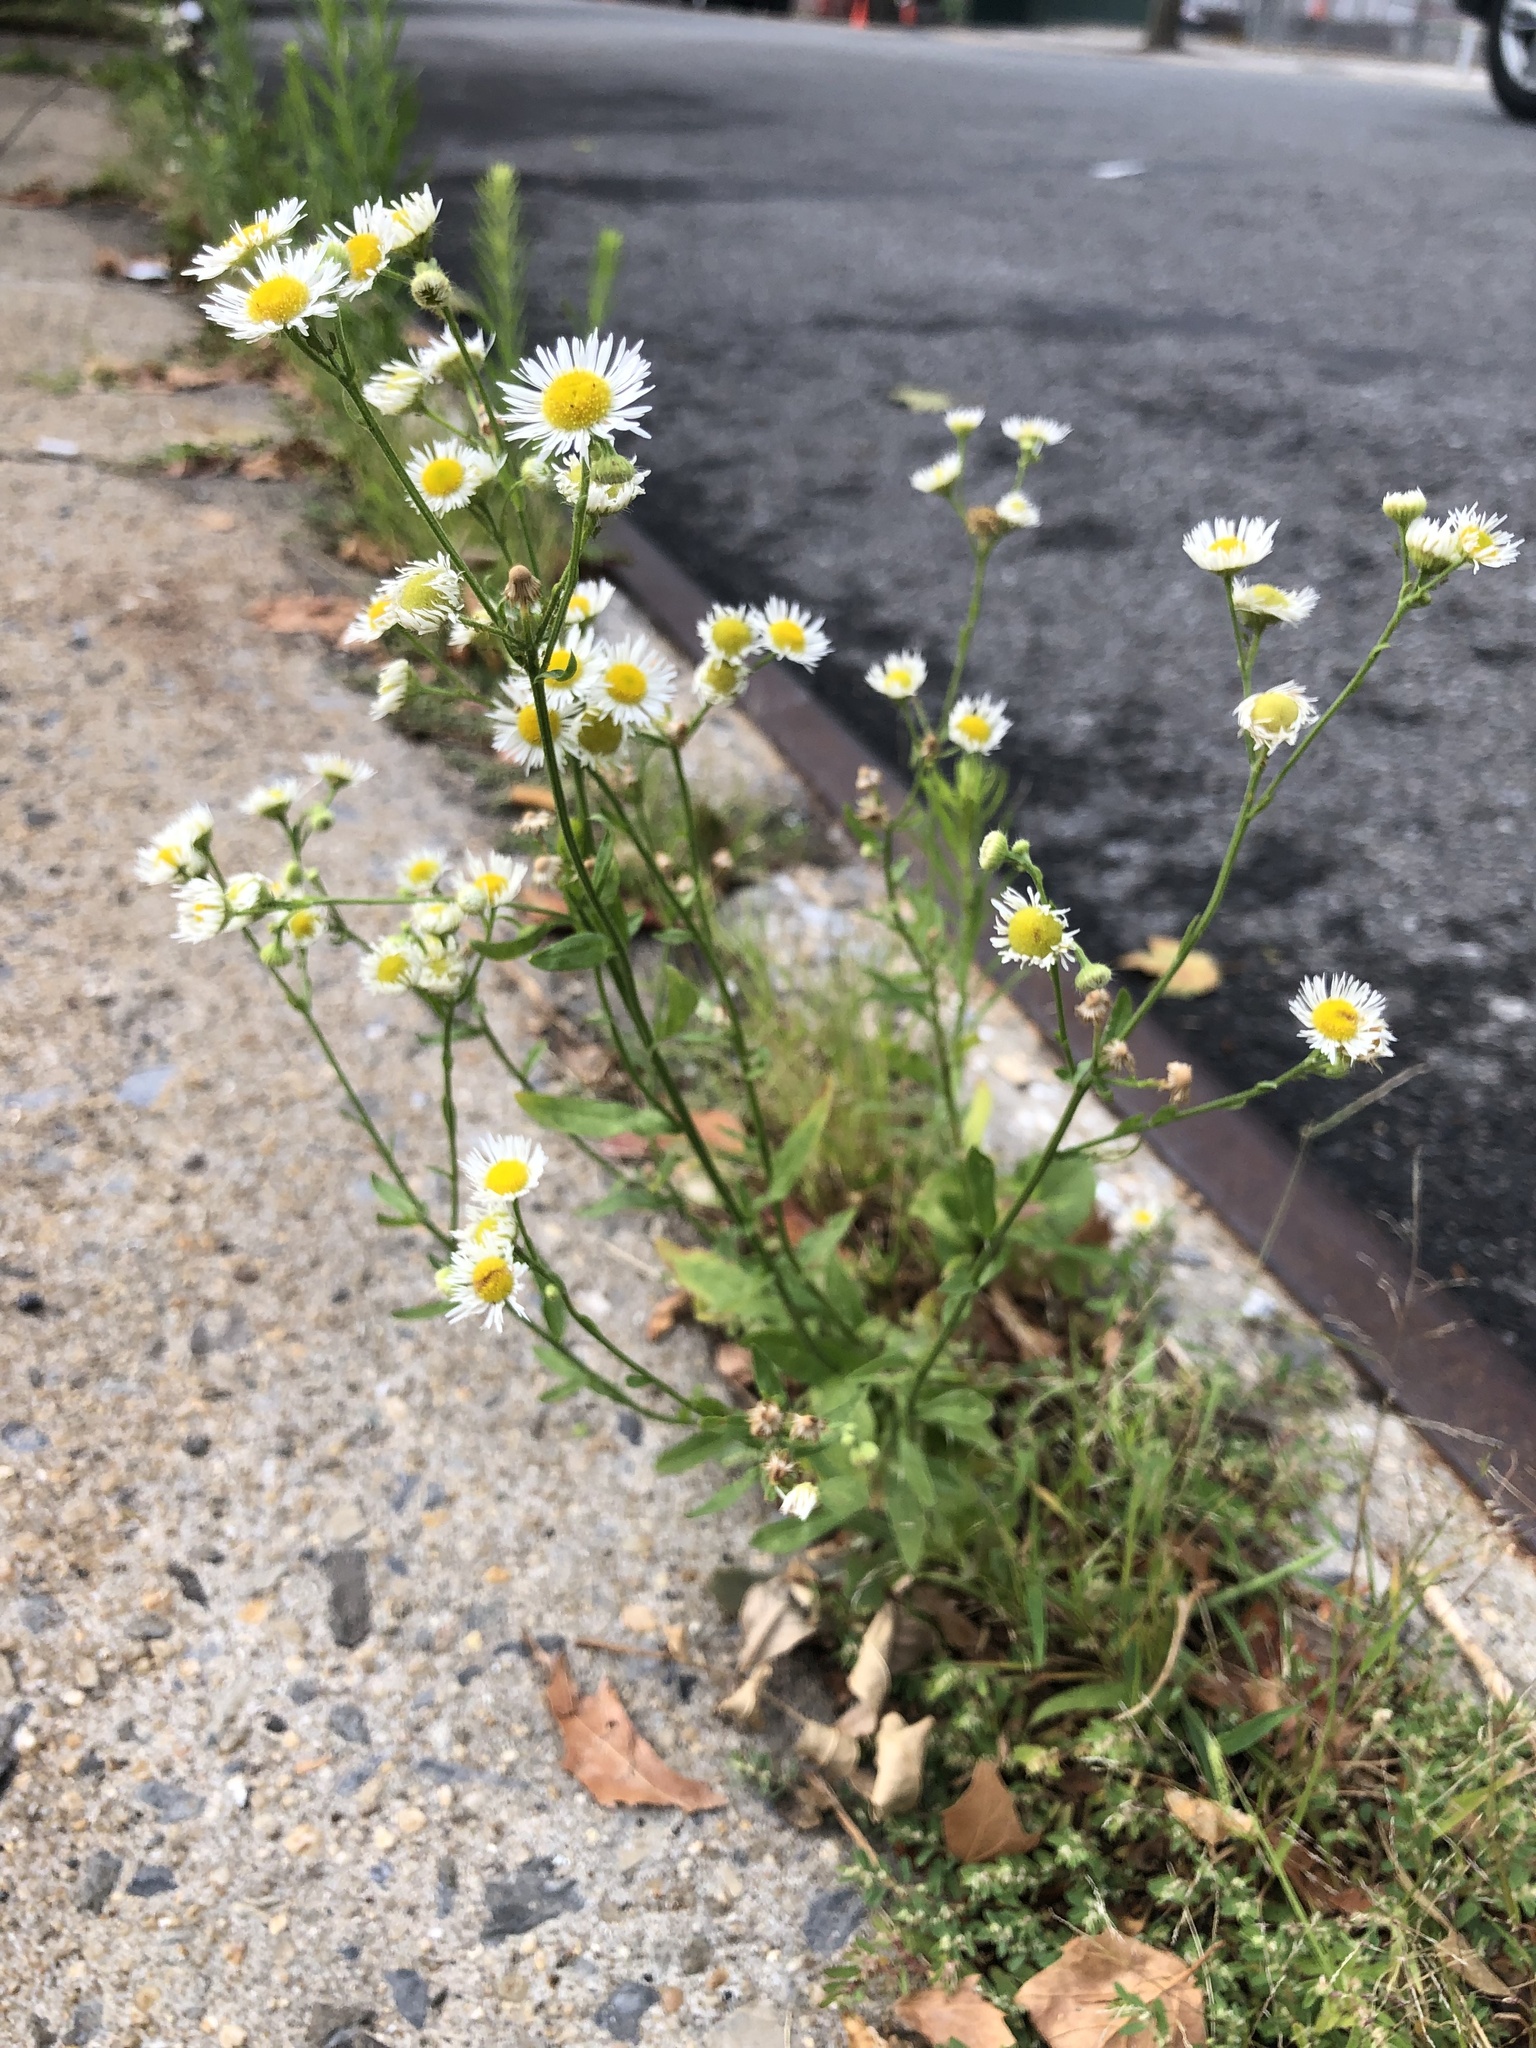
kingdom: Plantae
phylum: Tracheophyta
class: Magnoliopsida
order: Asterales
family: Asteraceae
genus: Erigeron
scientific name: Erigeron annuus
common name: Tall fleabane
